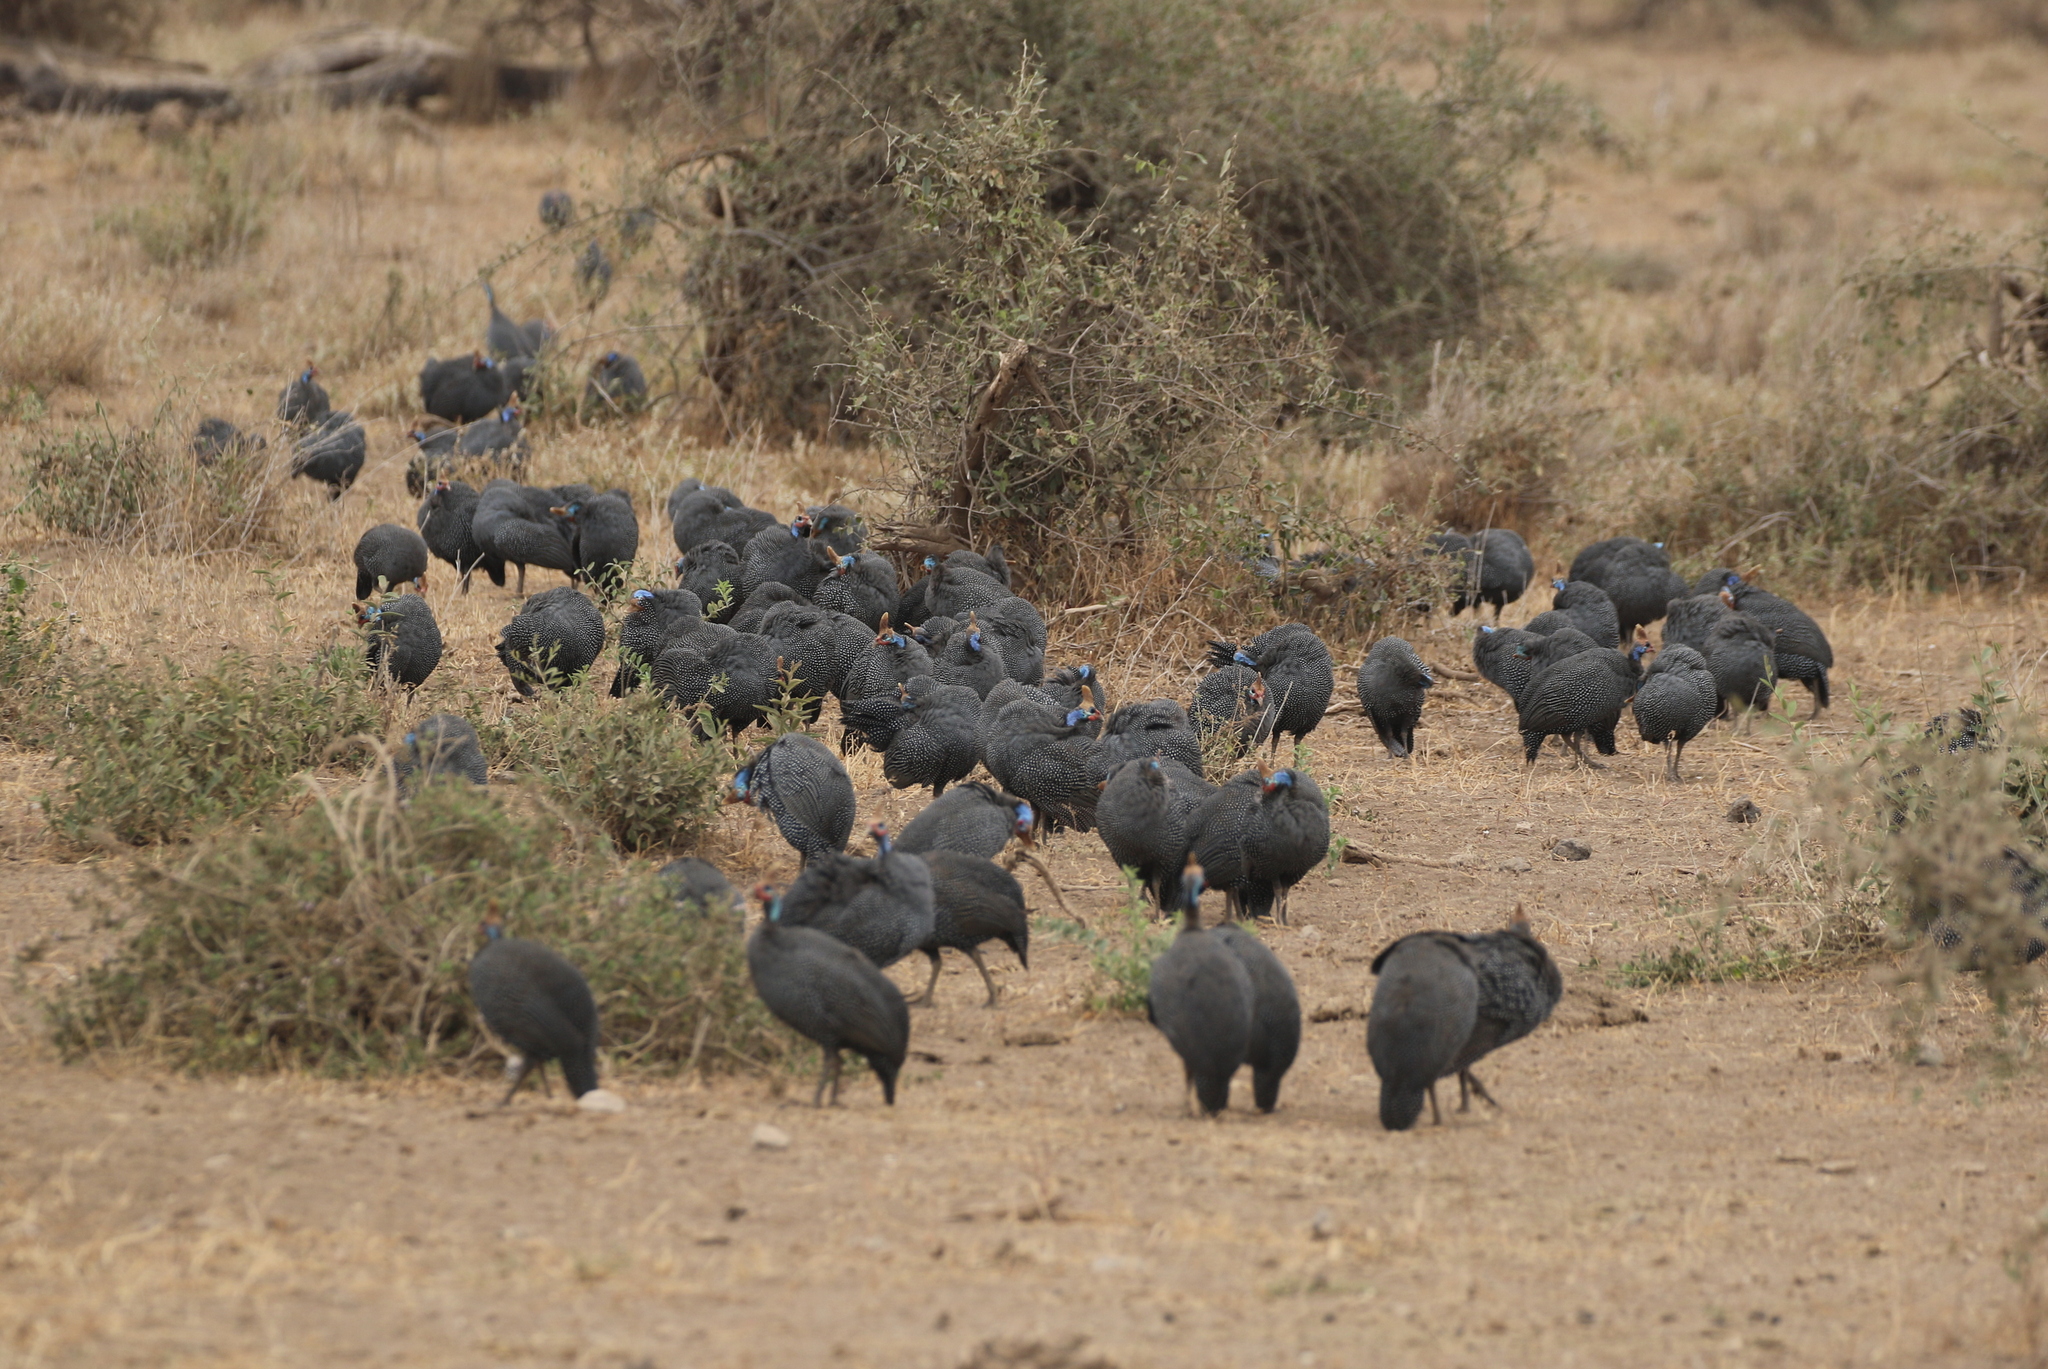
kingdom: Animalia
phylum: Chordata
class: Aves
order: Galliformes
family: Numididae
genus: Numida
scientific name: Numida meleagris
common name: Helmeted guineafowl
